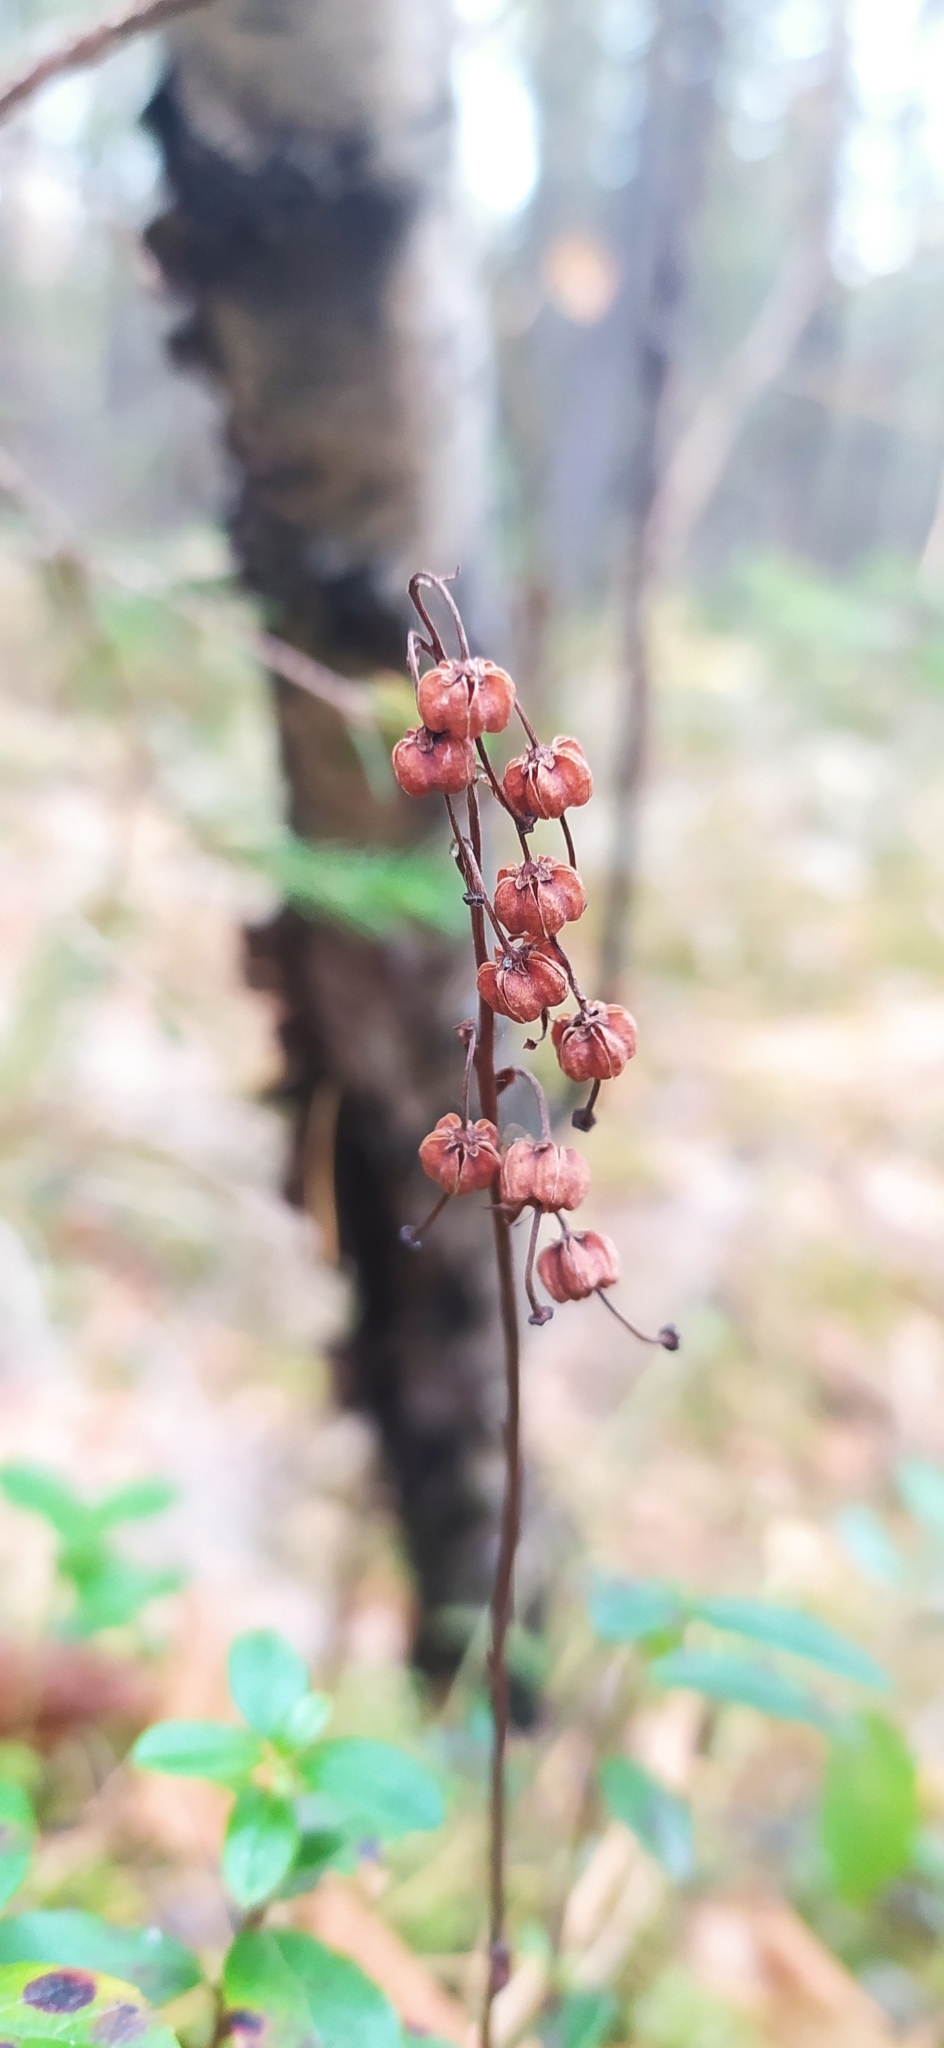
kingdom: Plantae
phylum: Tracheophyta
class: Magnoliopsida
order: Ericales
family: Ericaceae
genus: Orthilia
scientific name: Orthilia secunda
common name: One-sided orthilia
